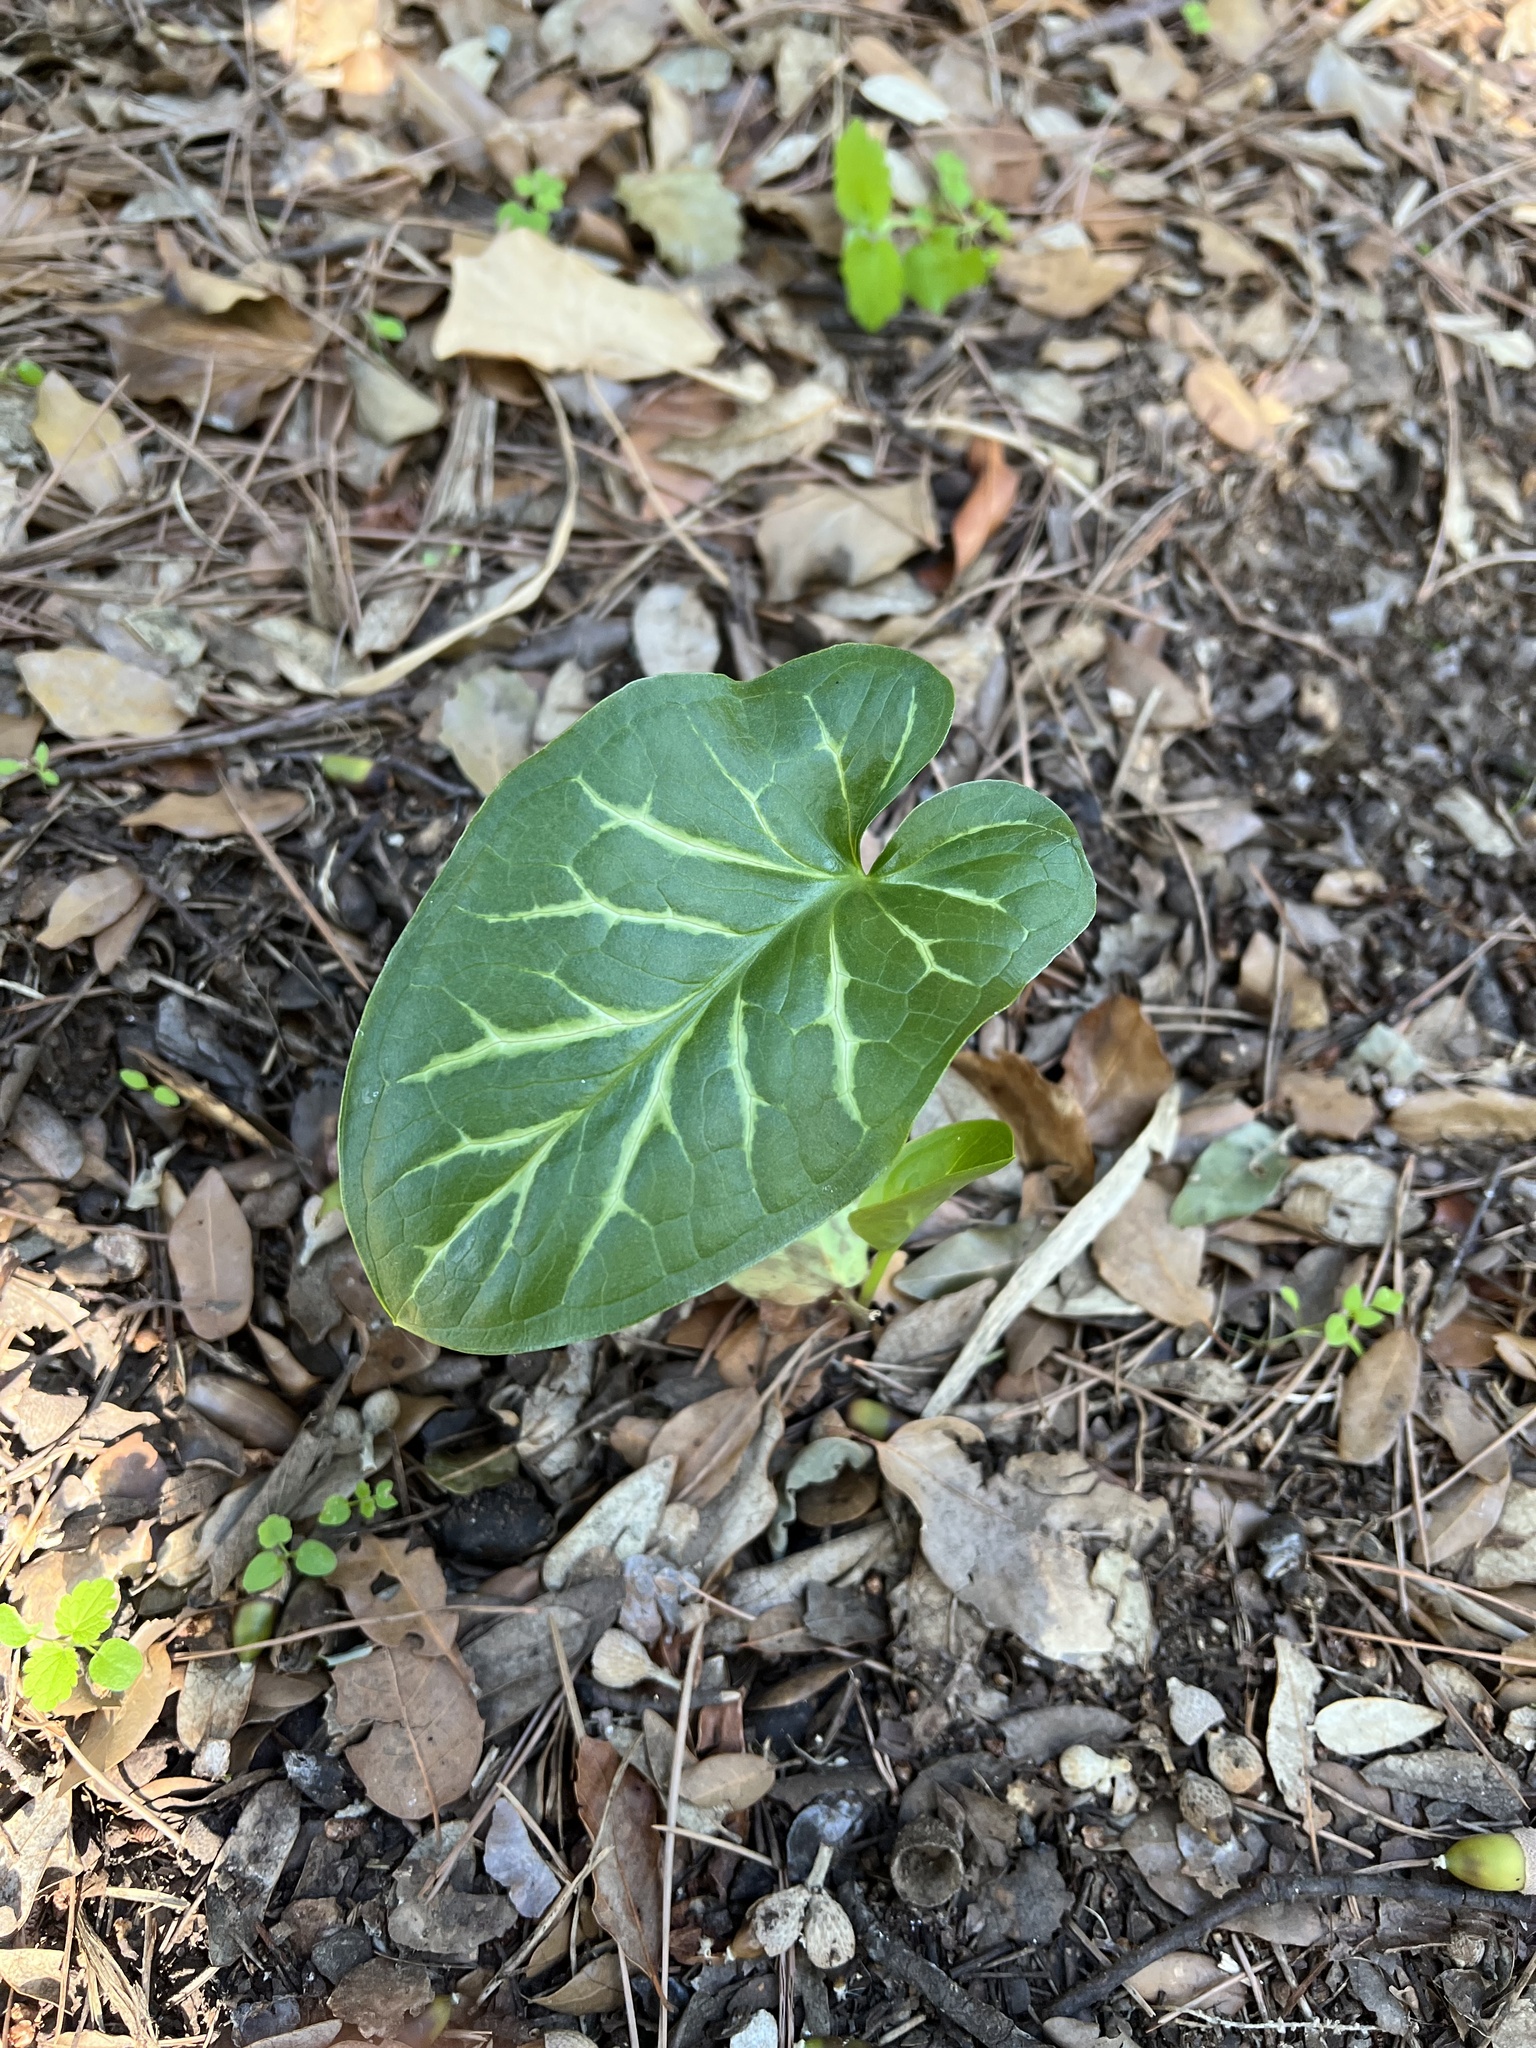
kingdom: Plantae
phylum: Tracheophyta
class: Liliopsida
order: Alismatales
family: Araceae
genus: Arum
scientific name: Arum italicum
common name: Italian lords-and-ladies
